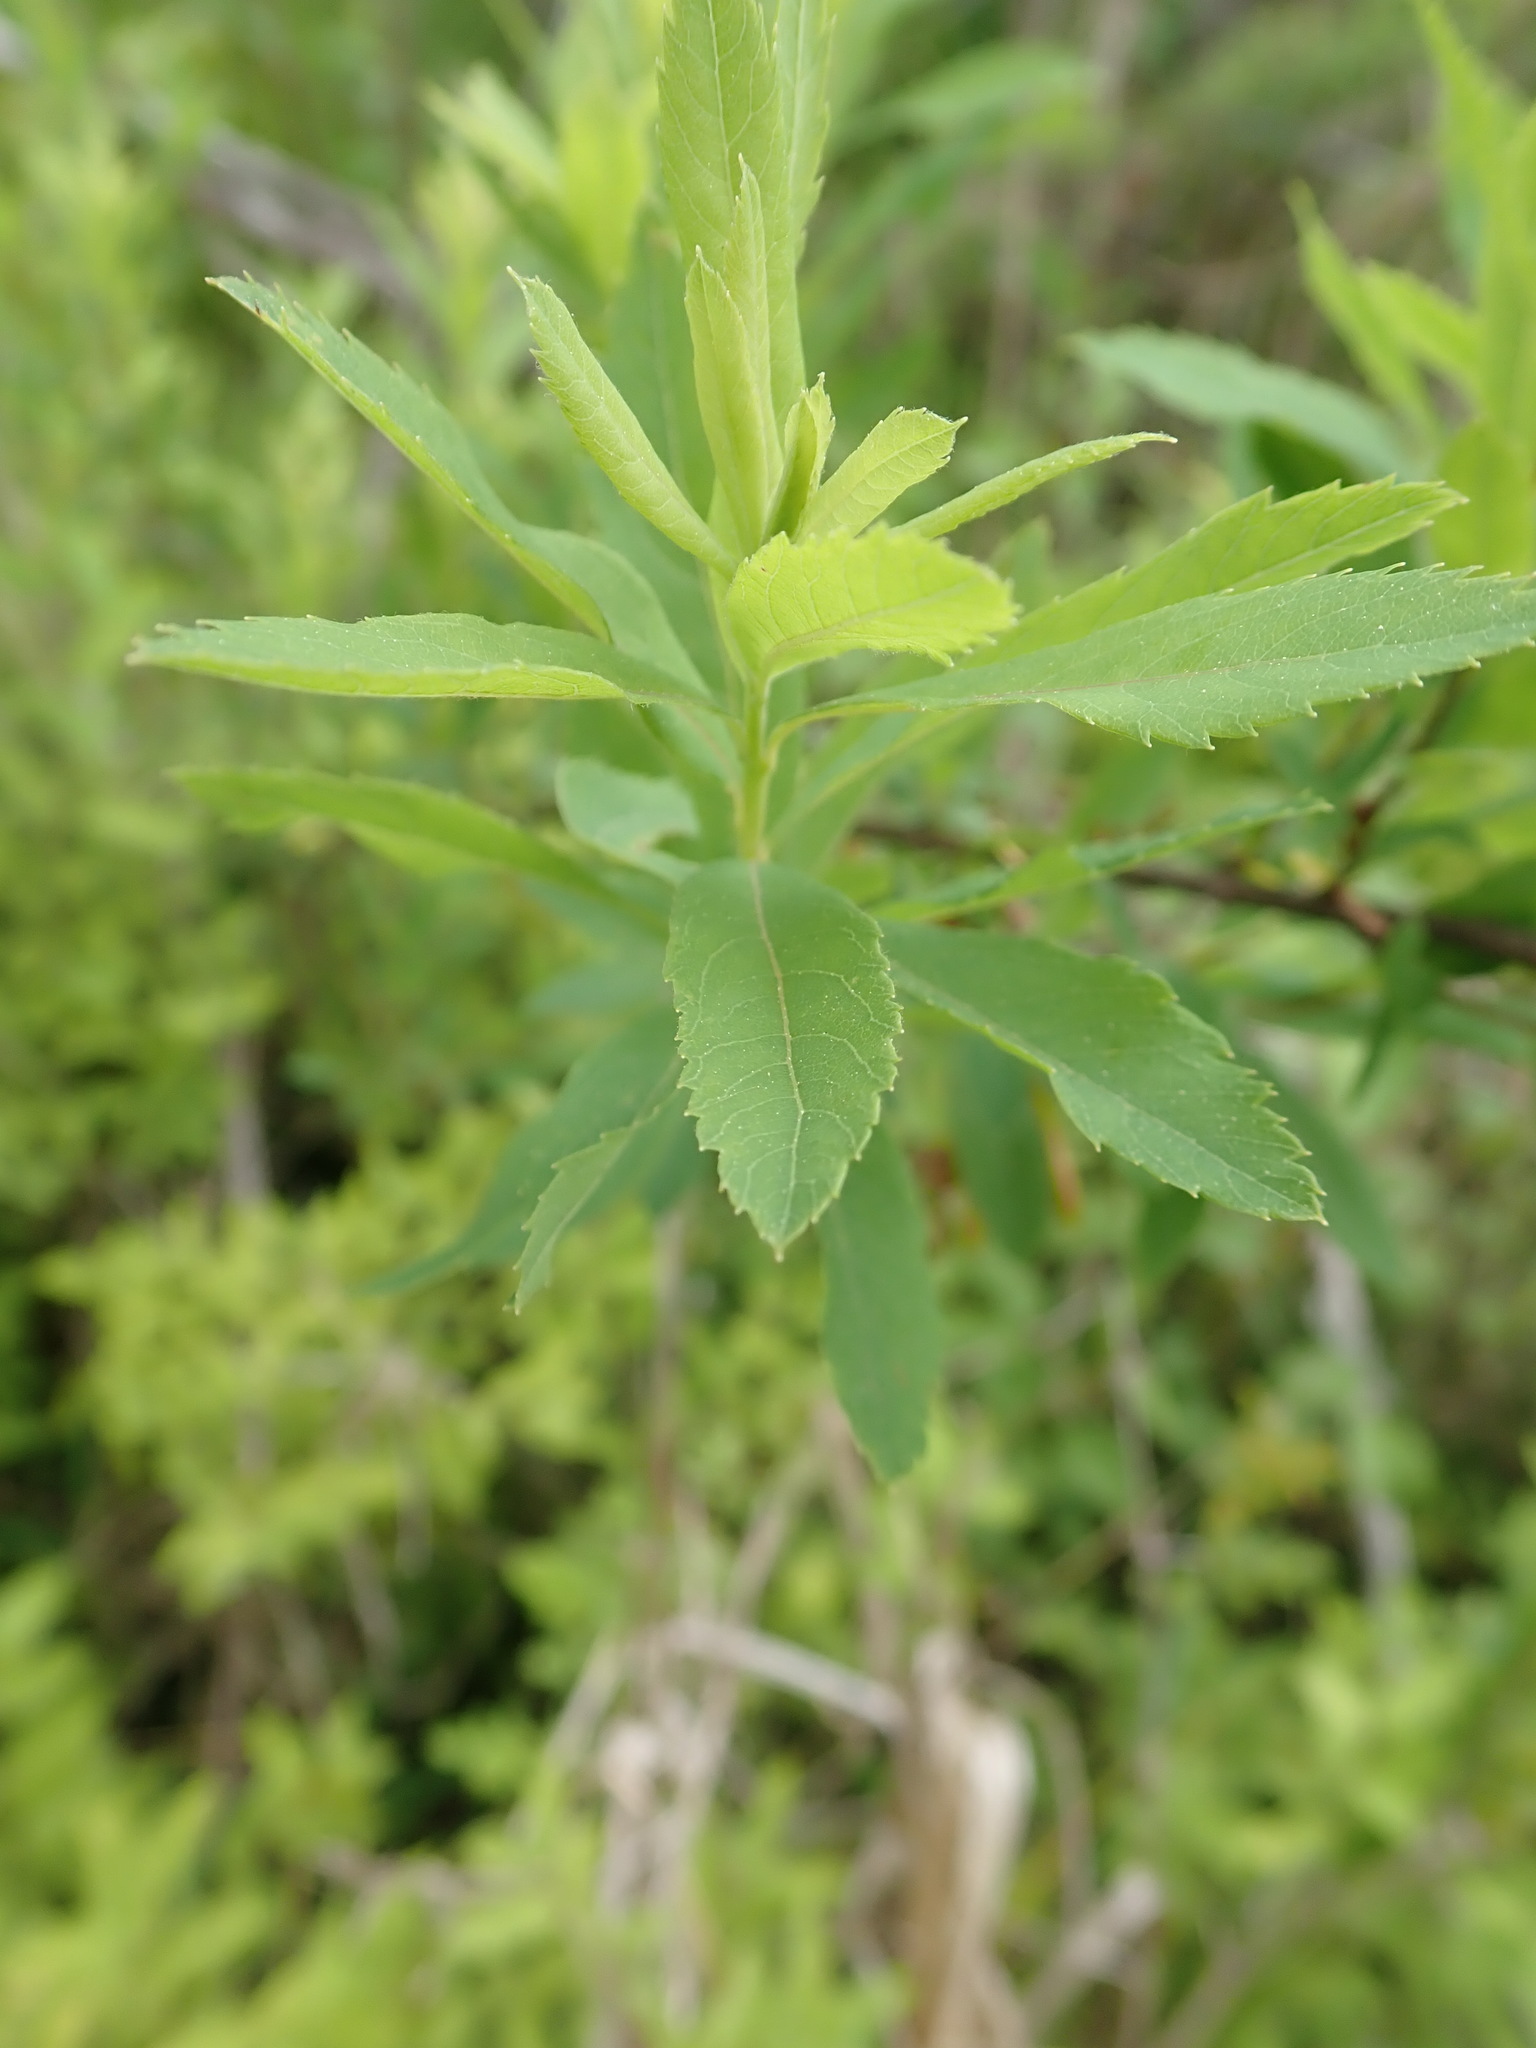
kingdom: Plantae
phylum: Tracheophyta
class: Magnoliopsida
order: Rosales
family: Rosaceae
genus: Spiraea
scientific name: Spiraea alba
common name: Pale bridewort
